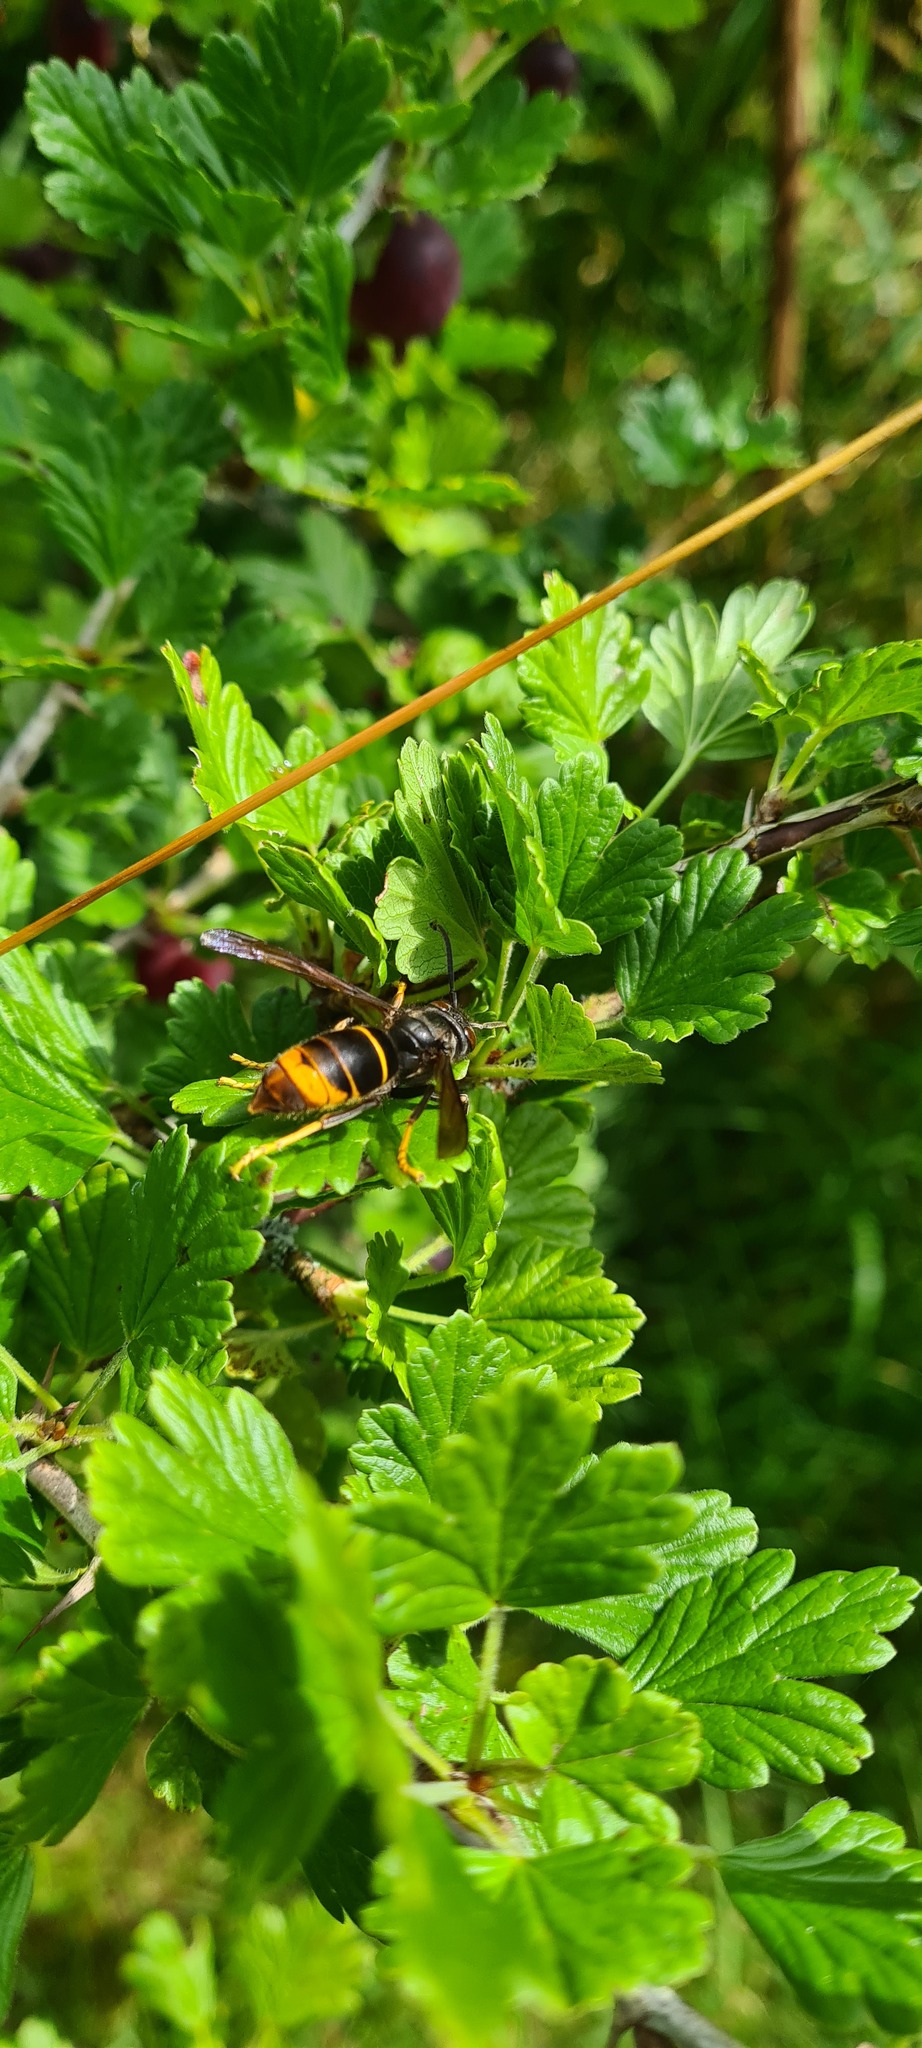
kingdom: Animalia
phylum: Arthropoda
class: Insecta
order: Hymenoptera
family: Vespidae
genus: Vespa
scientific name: Vespa velutina
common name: Asian hornet
